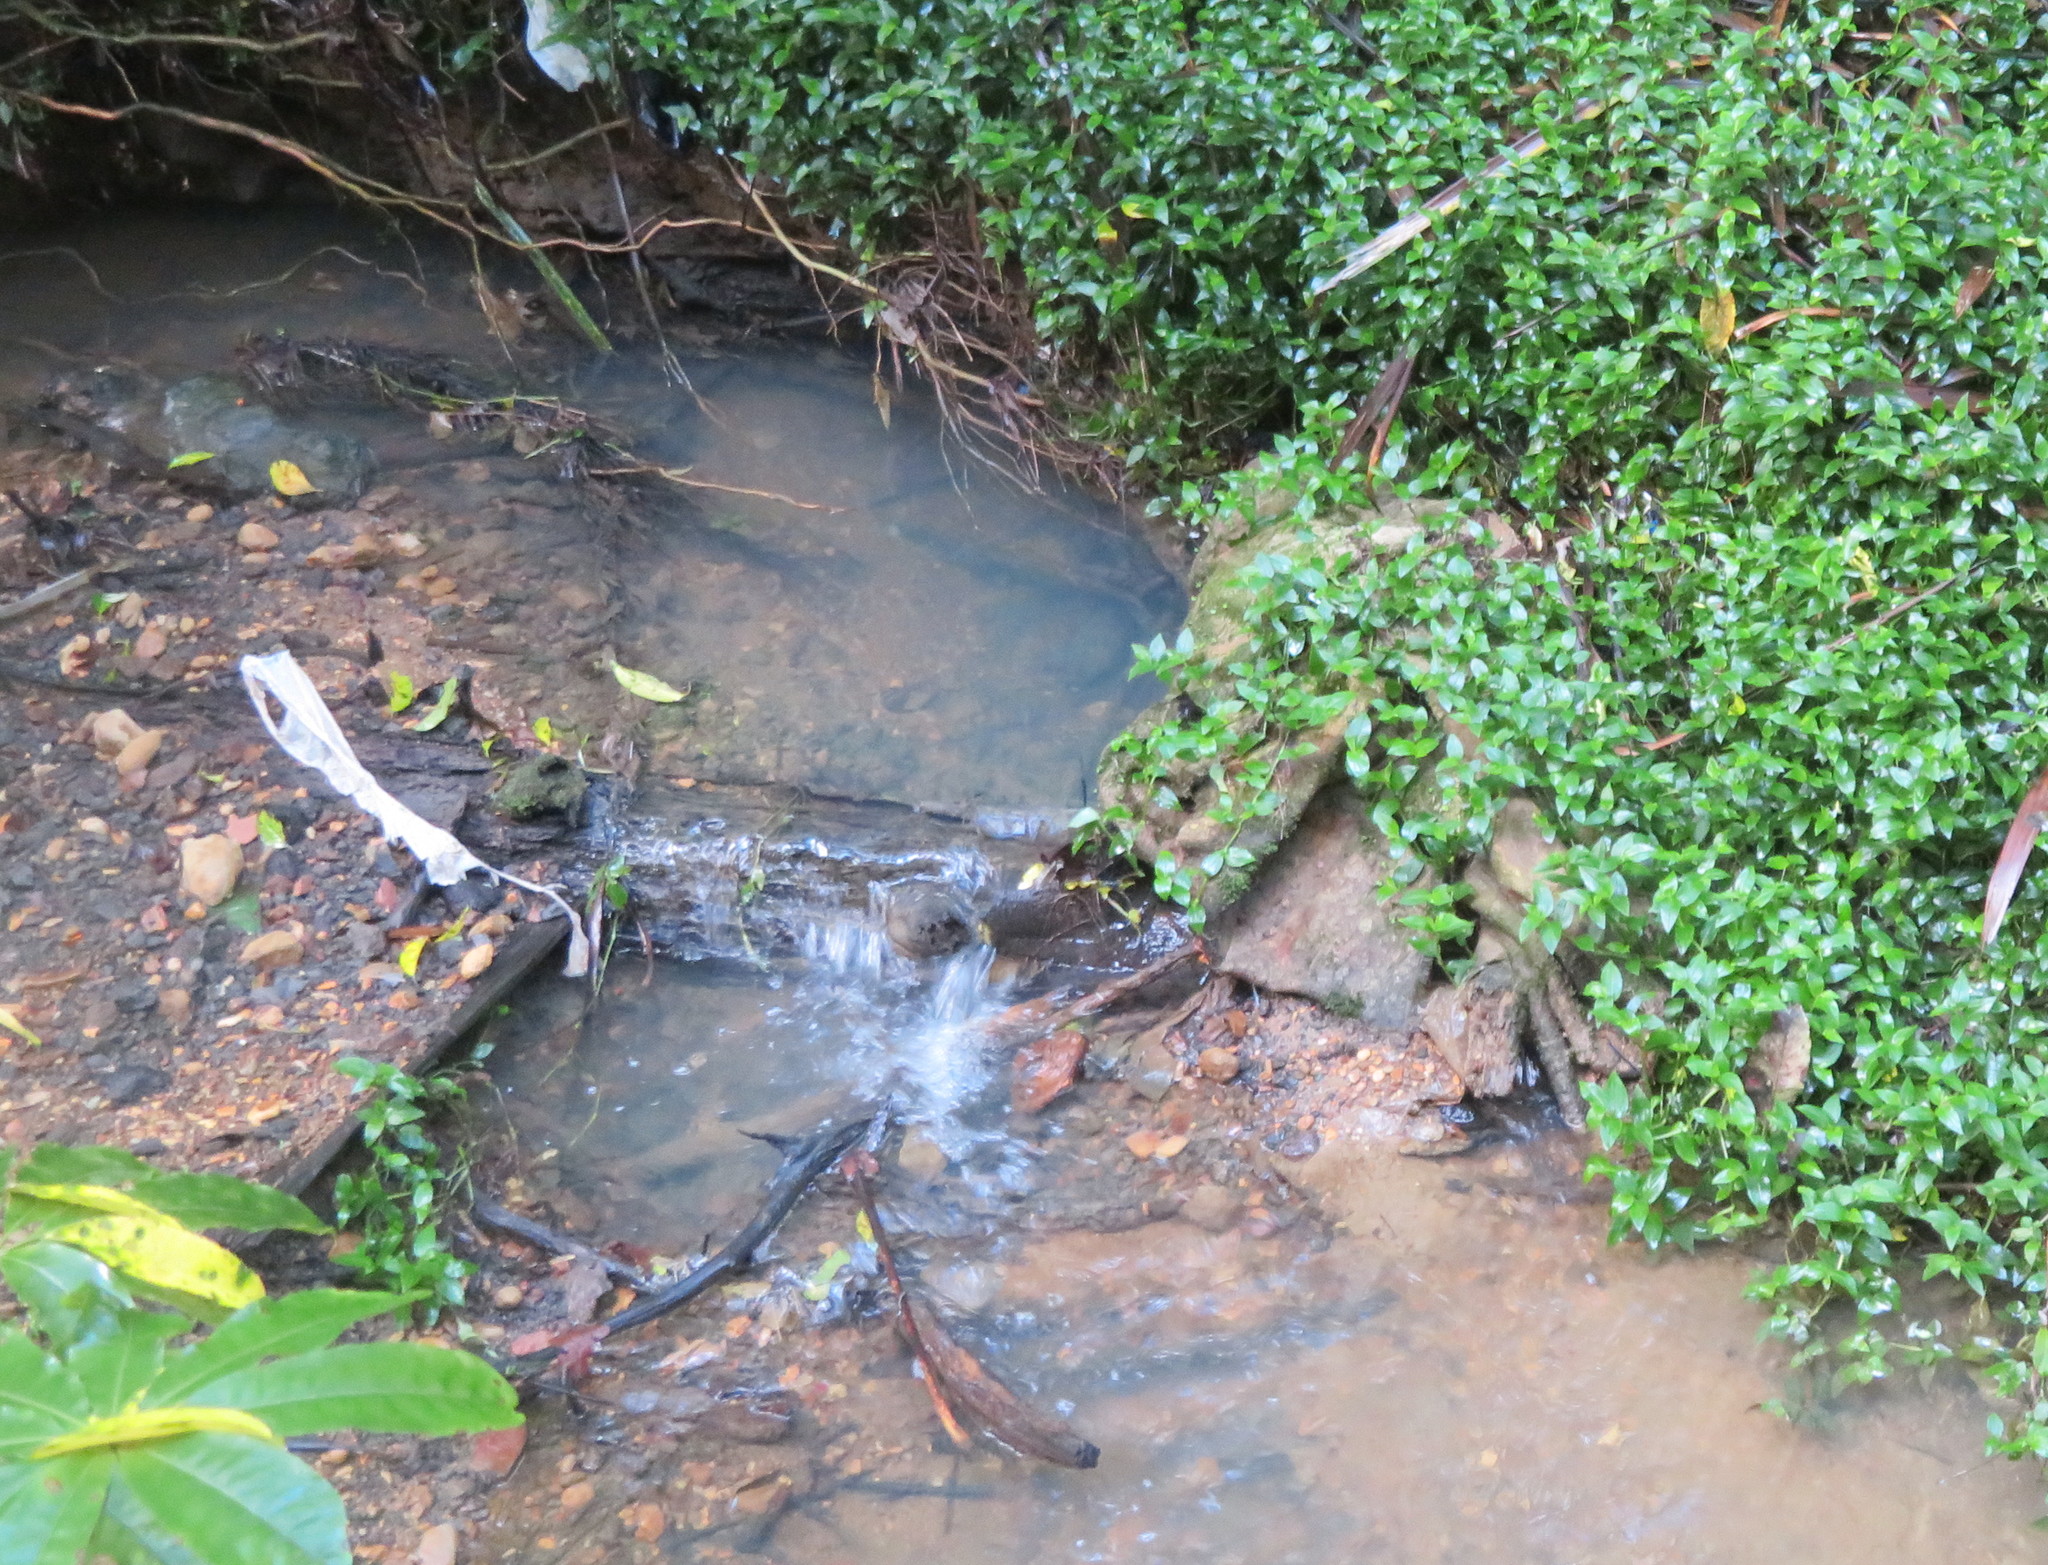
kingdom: Plantae
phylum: Tracheophyta
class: Liliopsida
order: Commelinales
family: Commelinaceae
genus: Tradescantia
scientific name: Tradescantia fluminensis
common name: Wandering-jew
